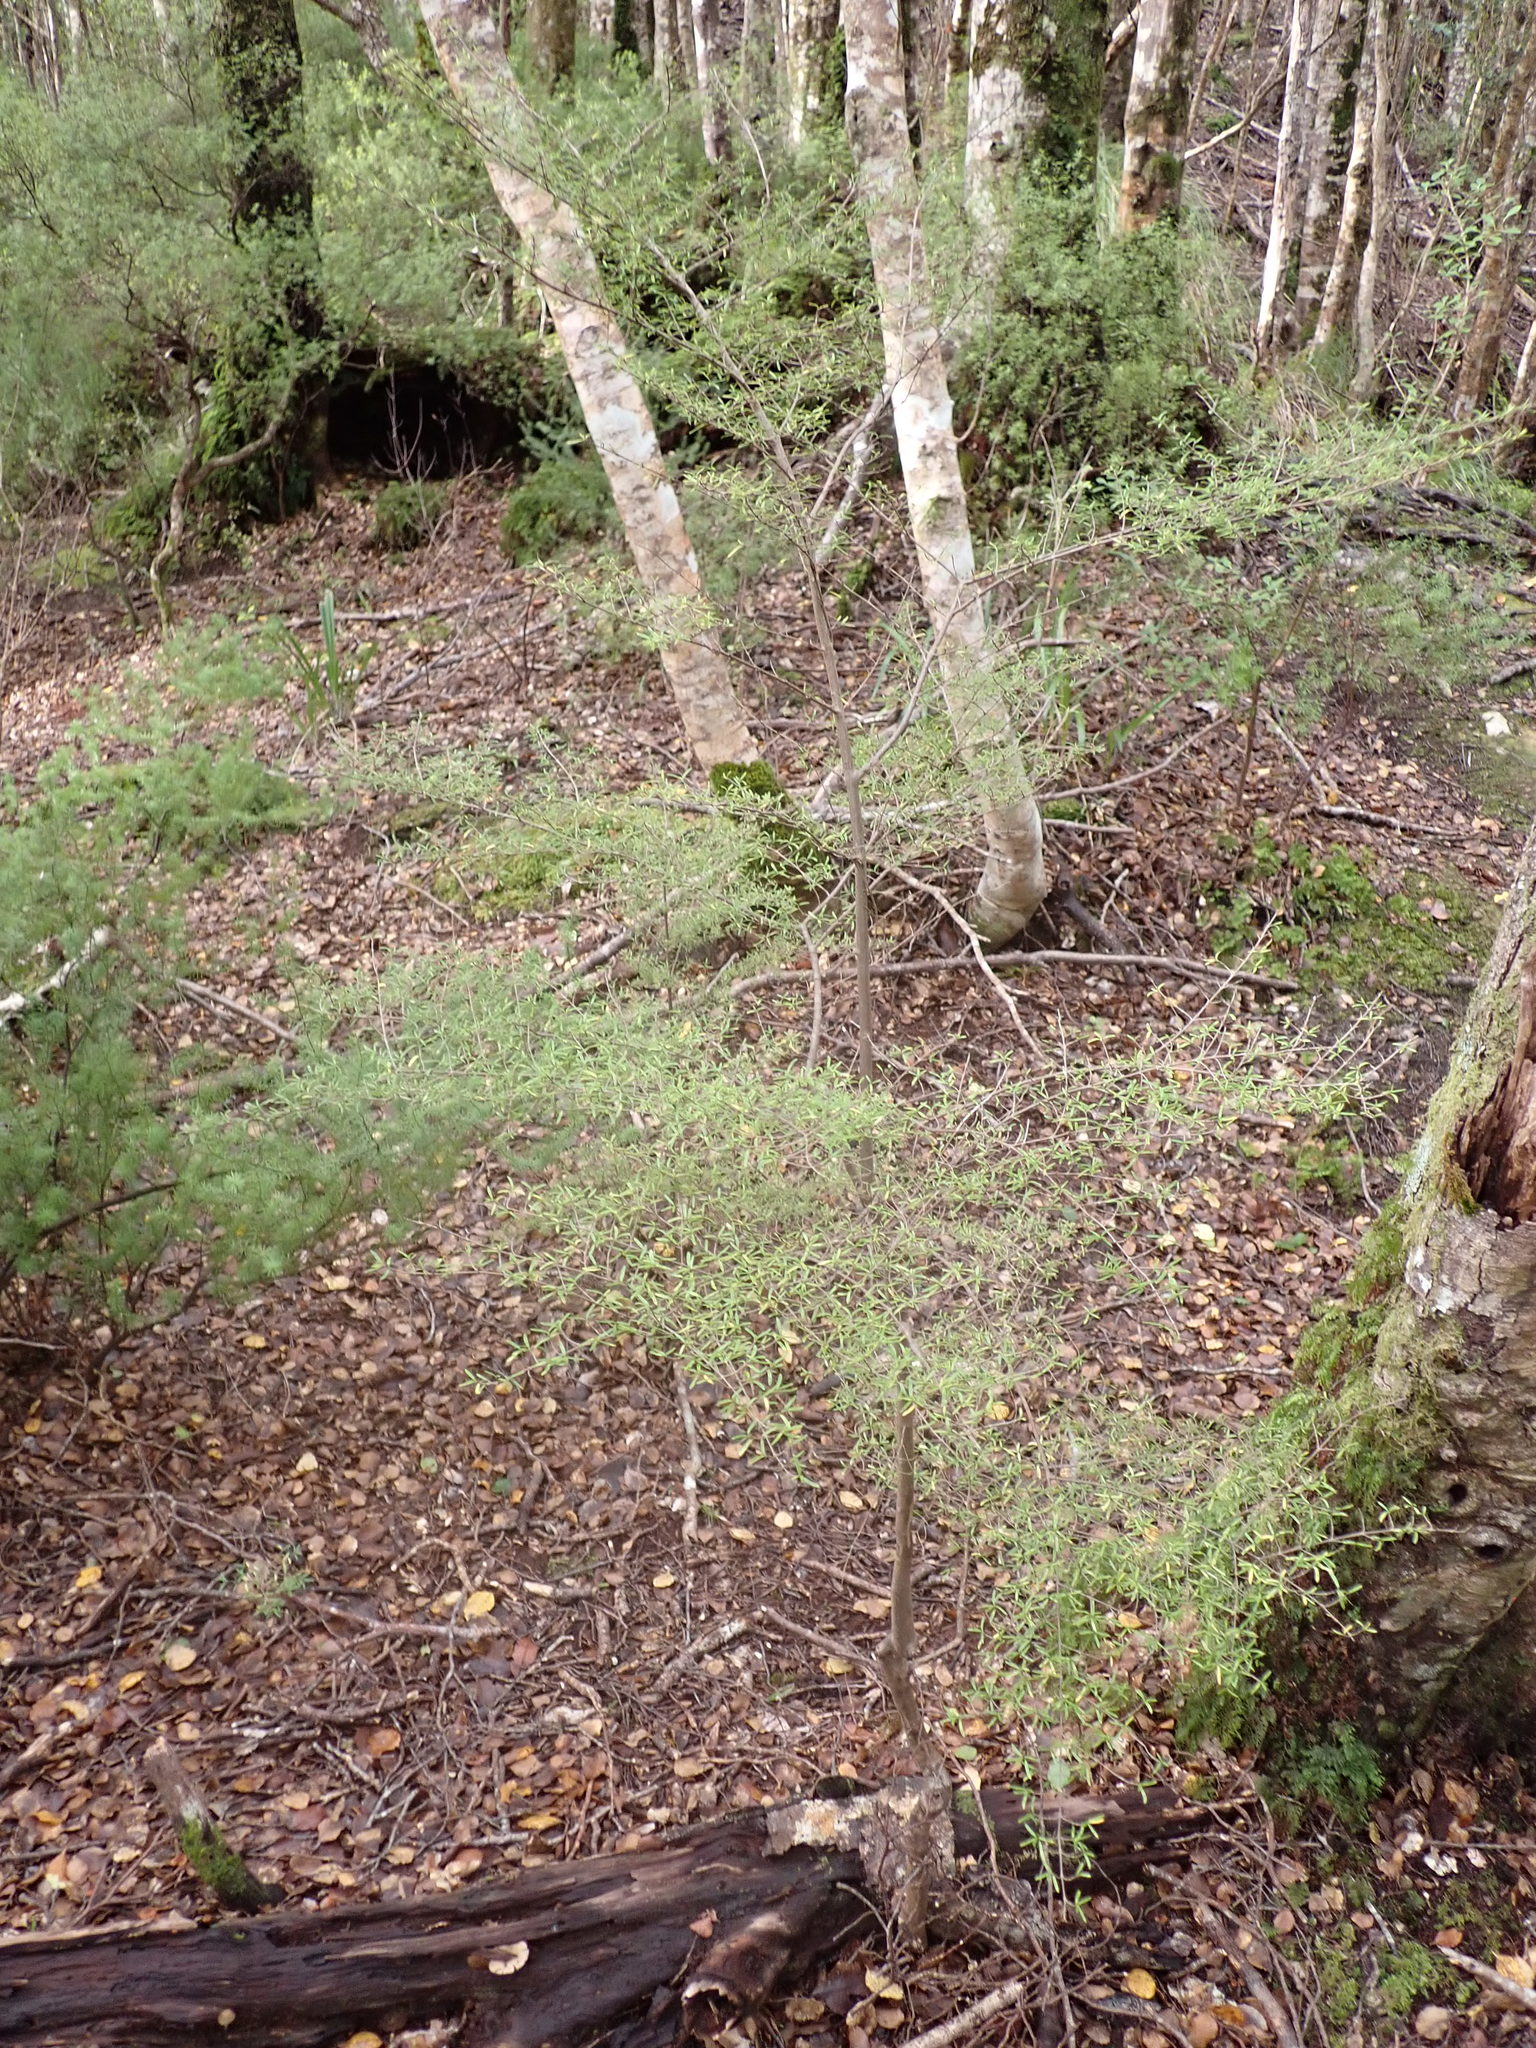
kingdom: Plantae
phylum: Tracheophyta
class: Magnoliopsida
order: Gentianales
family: Rubiaceae
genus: Coprosma
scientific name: Coprosma microcarpa
